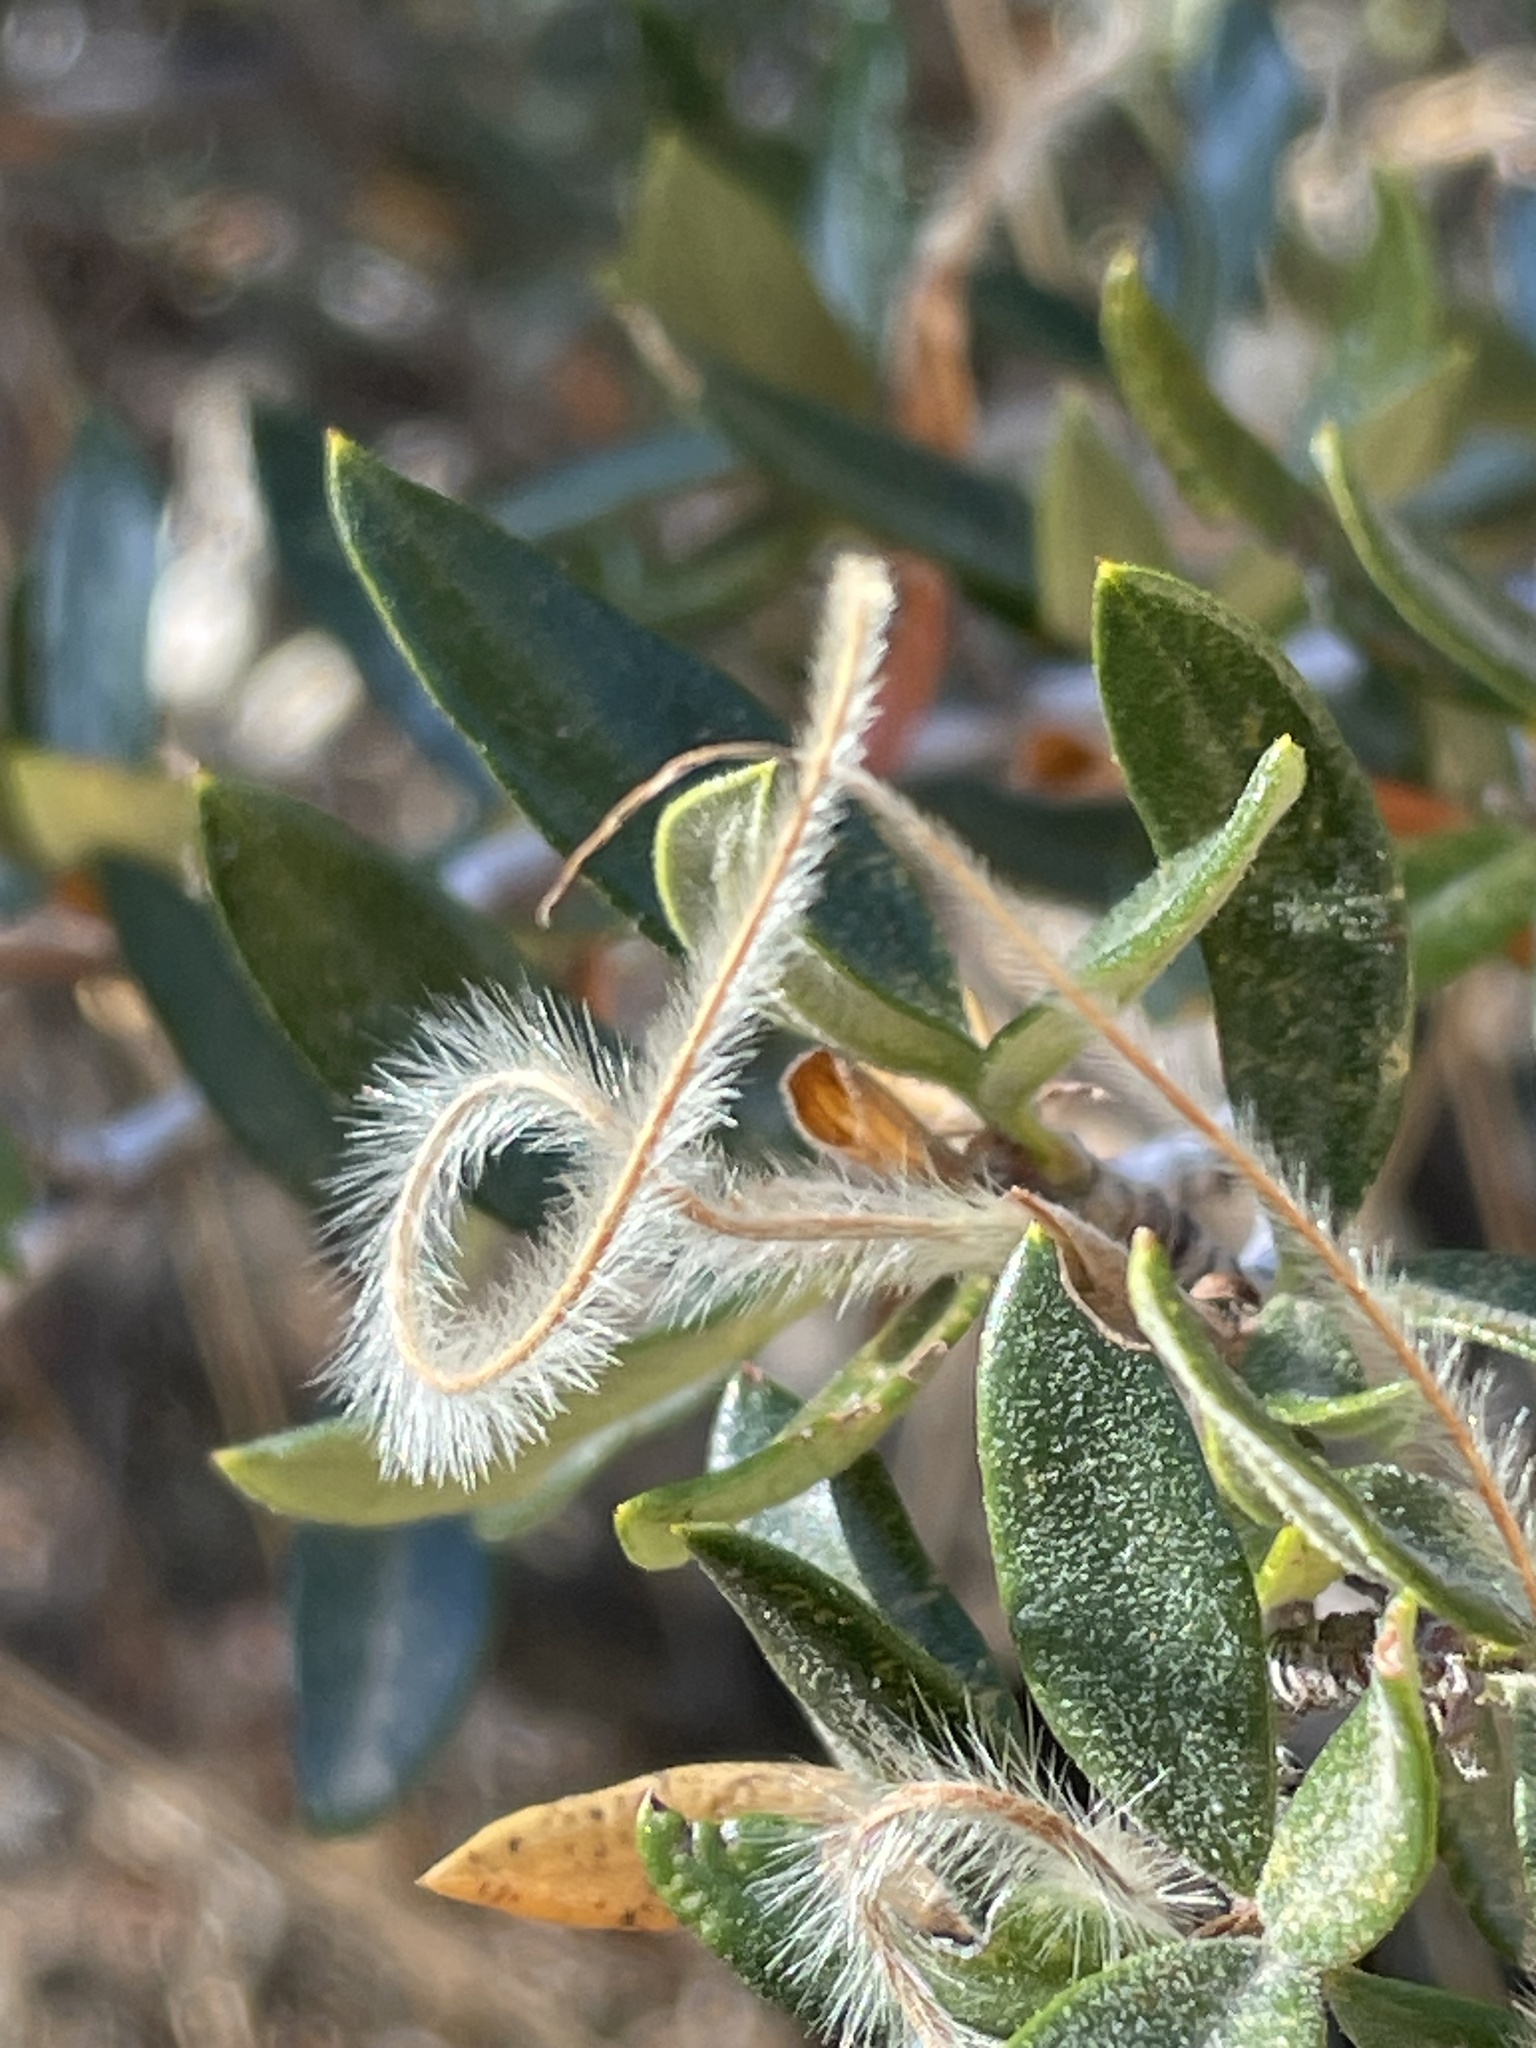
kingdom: Plantae
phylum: Tracheophyta
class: Magnoliopsida
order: Rosales
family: Rosaceae
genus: Cercocarpus
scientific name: Cercocarpus ledifolius
